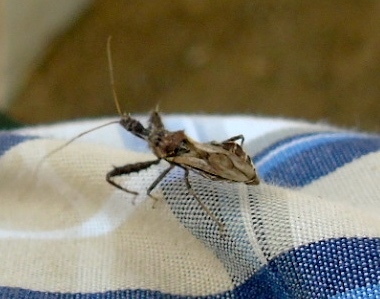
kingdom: Animalia
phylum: Arthropoda
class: Insecta
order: Hemiptera
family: Reduviidae
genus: Sinea
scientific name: Sinea
